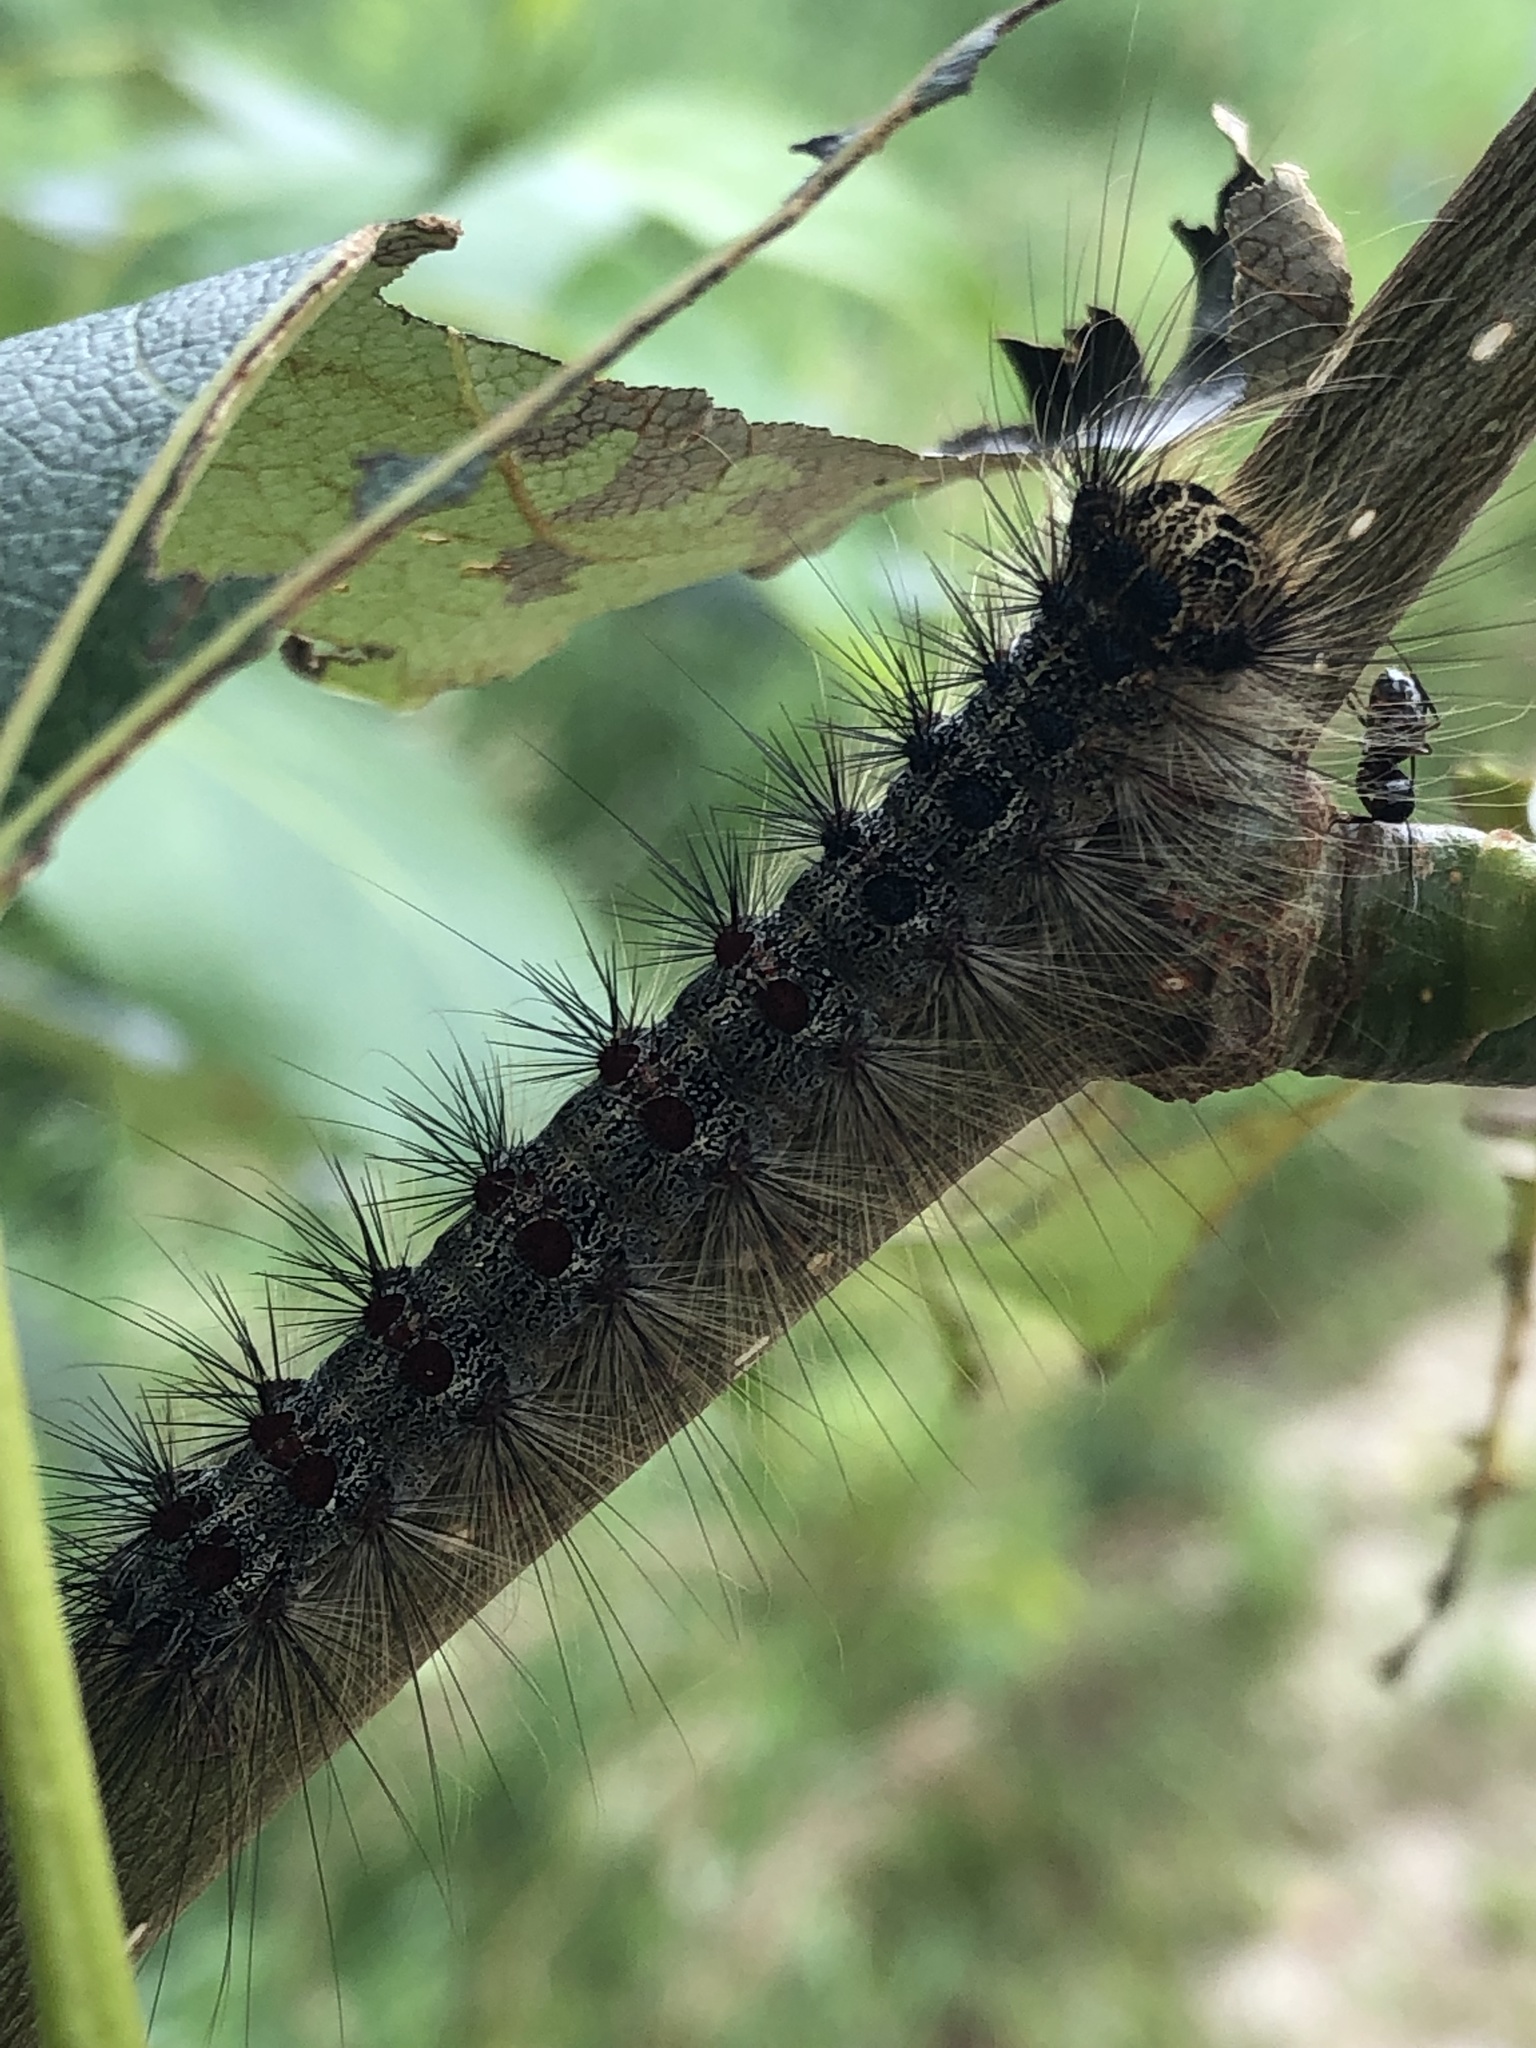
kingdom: Animalia
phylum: Arthropoda
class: Insecta
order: Lepidoptera
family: Erebidae
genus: Lymantria
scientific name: Lymantria dispar
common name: Gypsy moth
